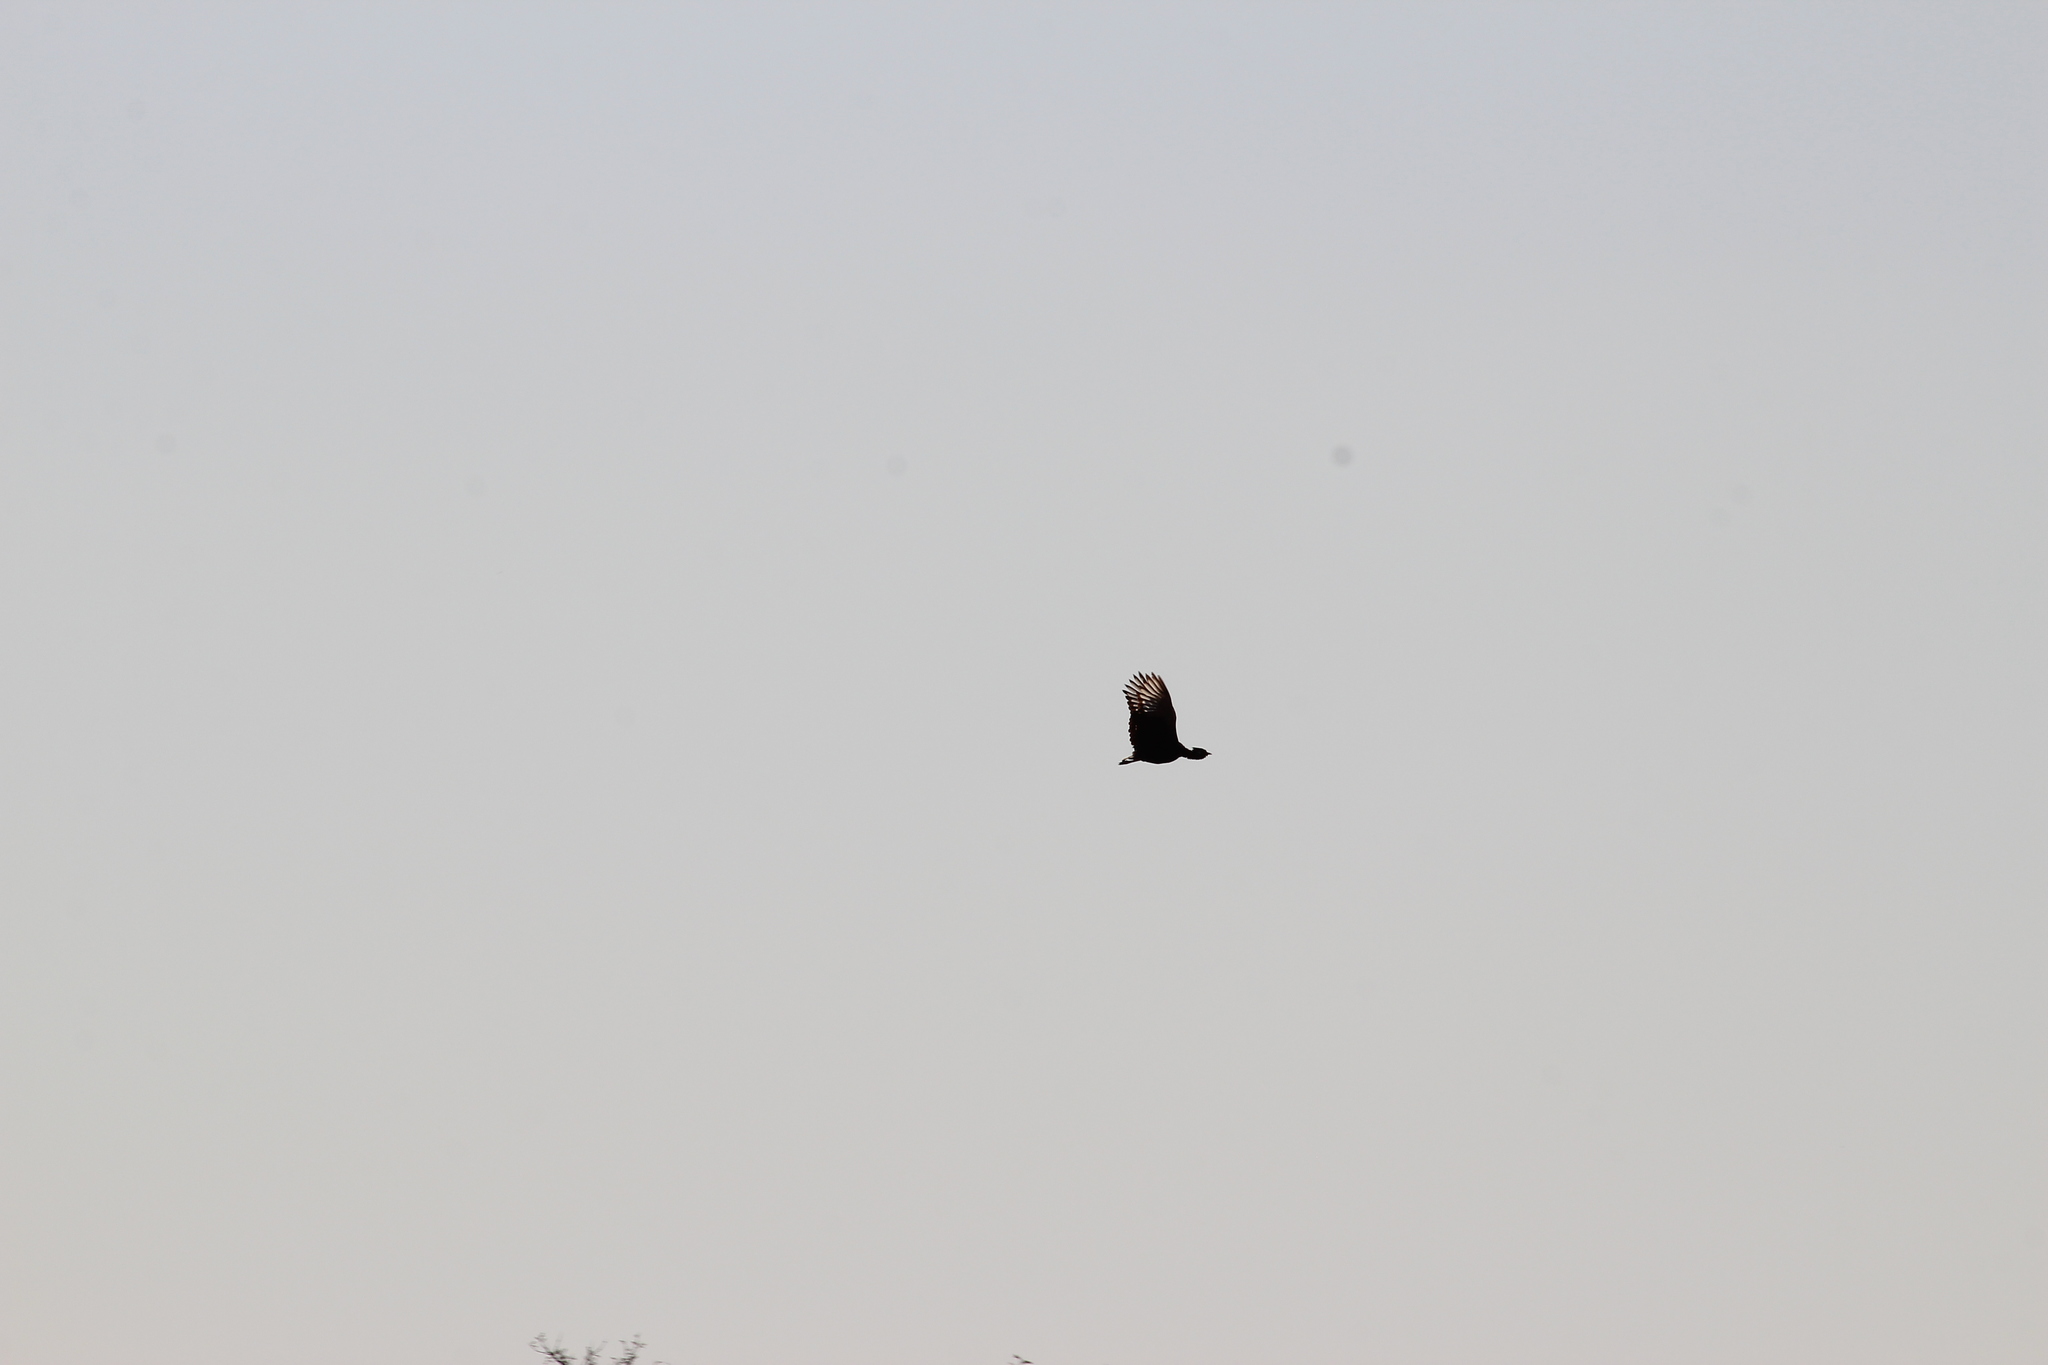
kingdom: Animalia
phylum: Chordata
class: Aves
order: Otidiformes
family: Otididae
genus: Afrotis
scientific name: Afrotis afraoides
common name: Northern black korhaan
